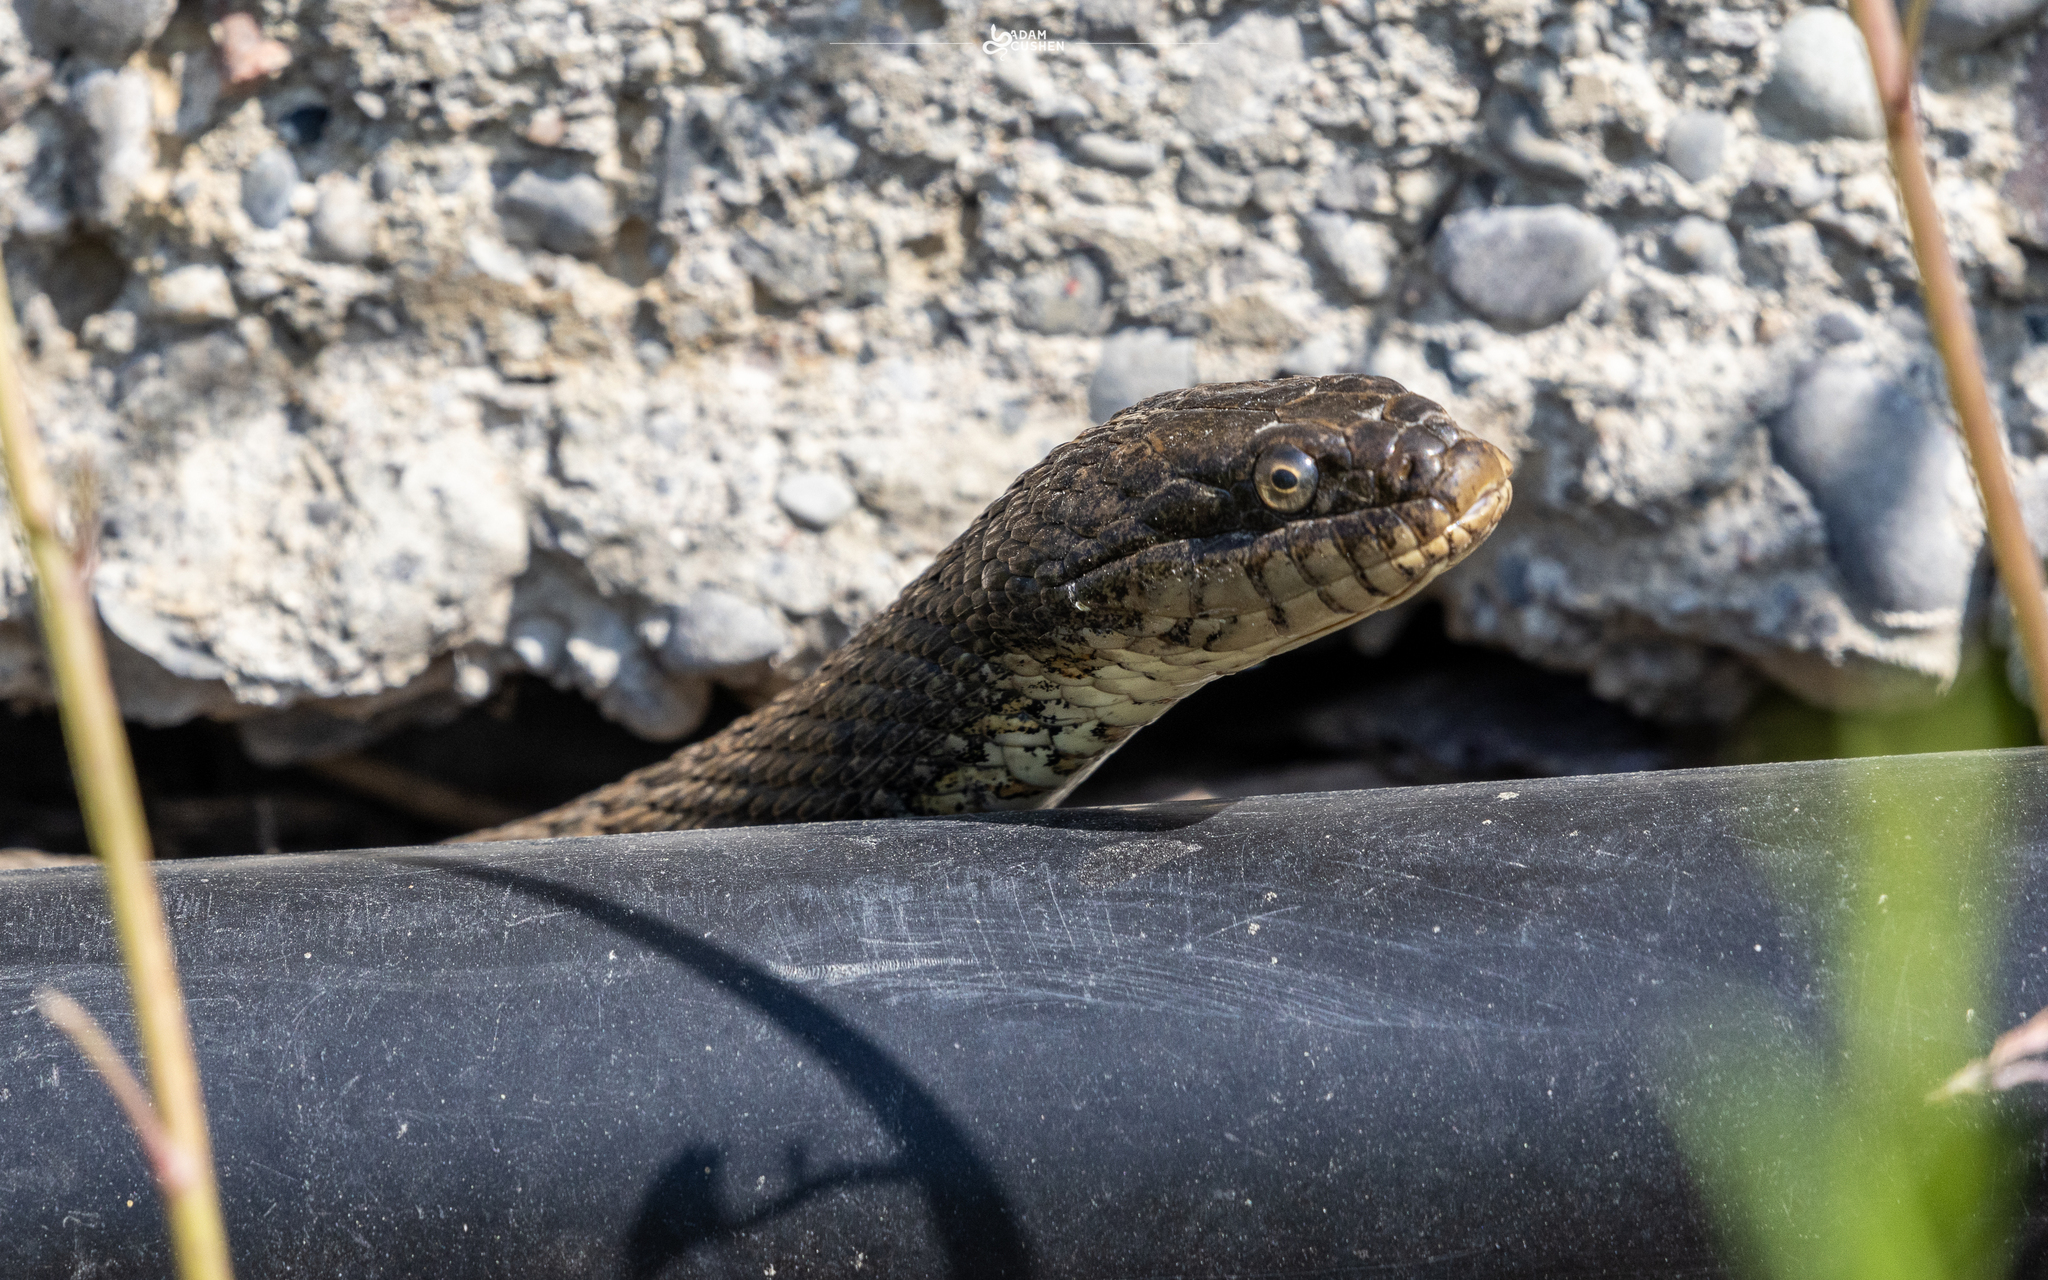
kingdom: Animalia
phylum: Chordata
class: Squamata
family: Colubridae
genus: Nerodia
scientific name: Nerodia sipedon
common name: Northern water snake
